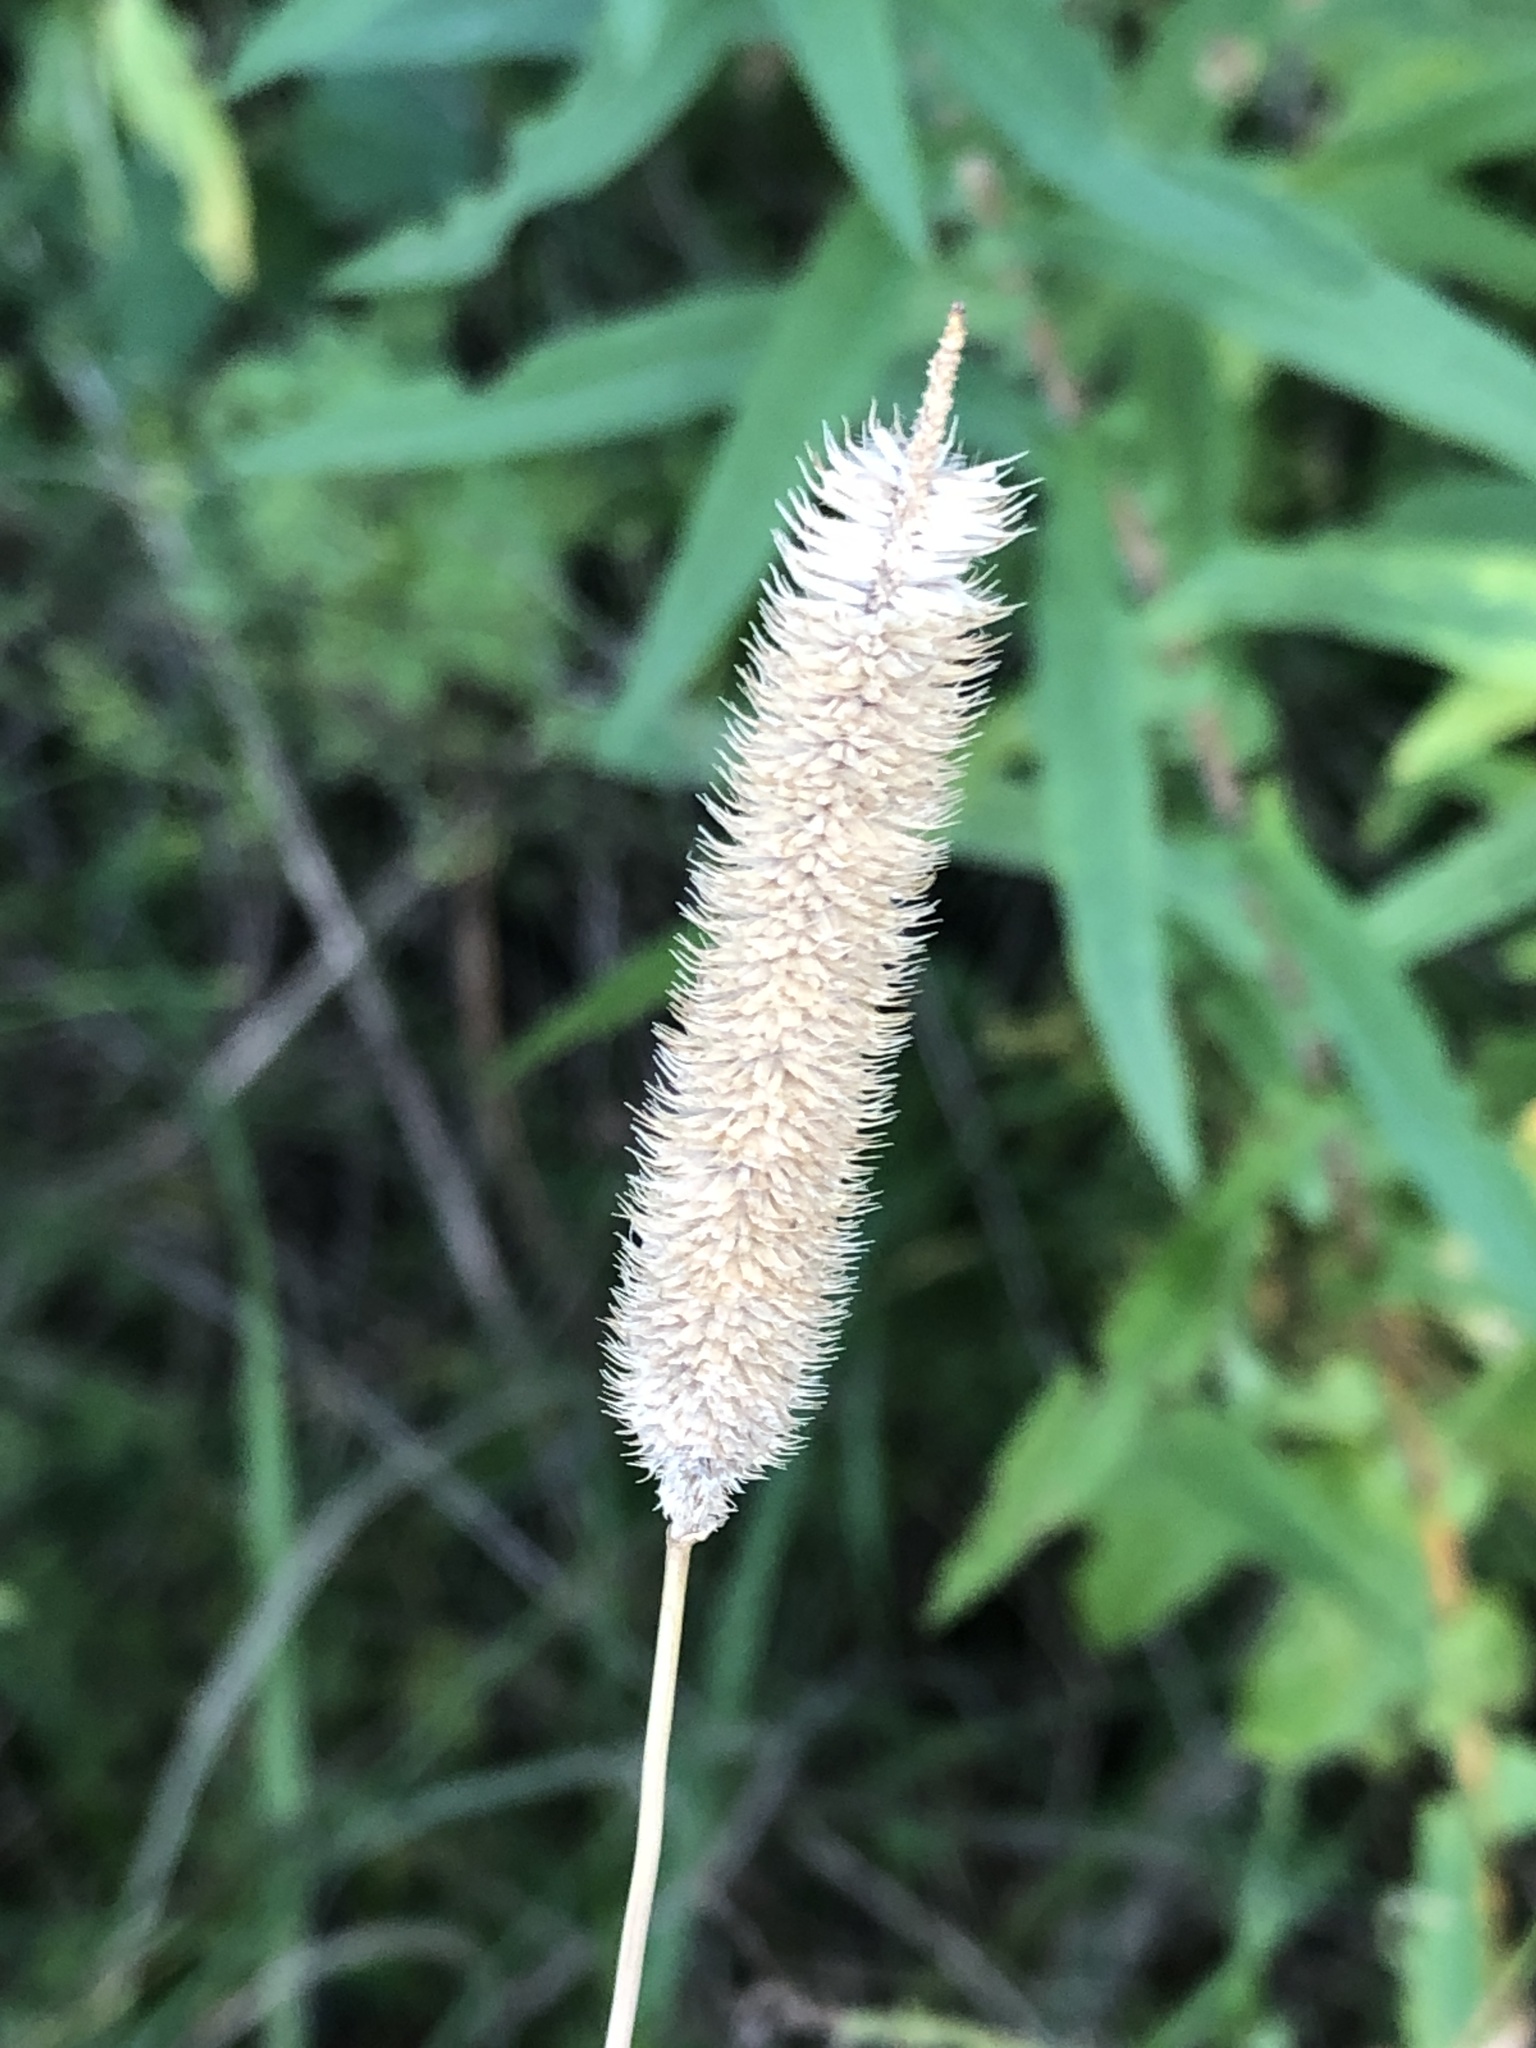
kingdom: Plantae
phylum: Tracheophyta
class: Liliopsida
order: Poales
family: Poaceae
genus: Phleum
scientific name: Phleum pratense
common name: Timothy grass
